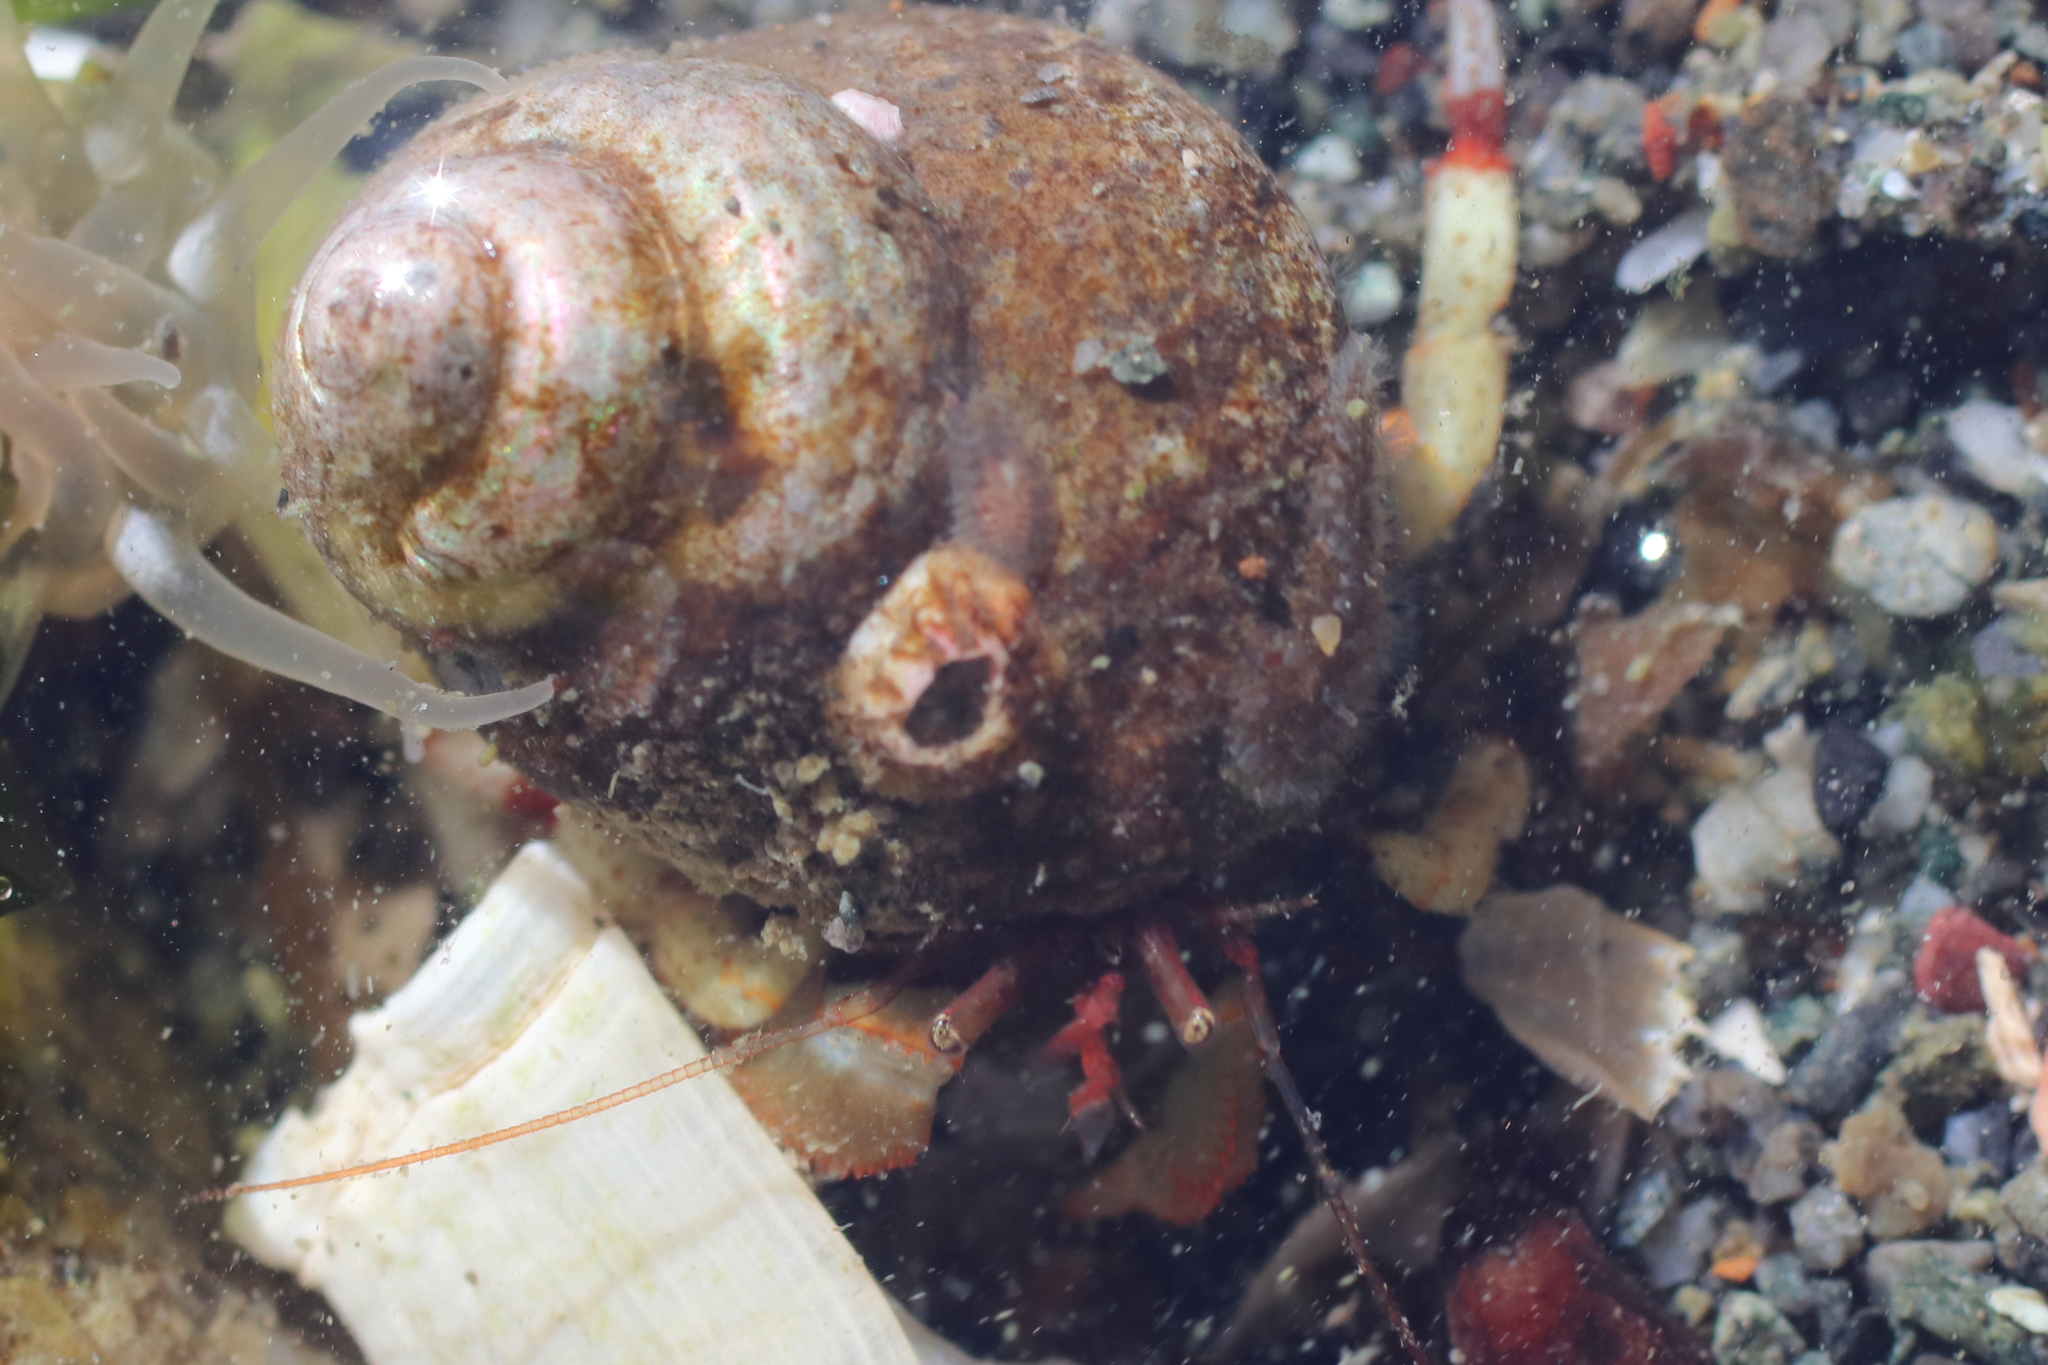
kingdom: Animalia
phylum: Arthropoda
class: Malacostraca
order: Decapoda
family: Paguridae
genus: Pagurus
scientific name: Pagurus beringanus
